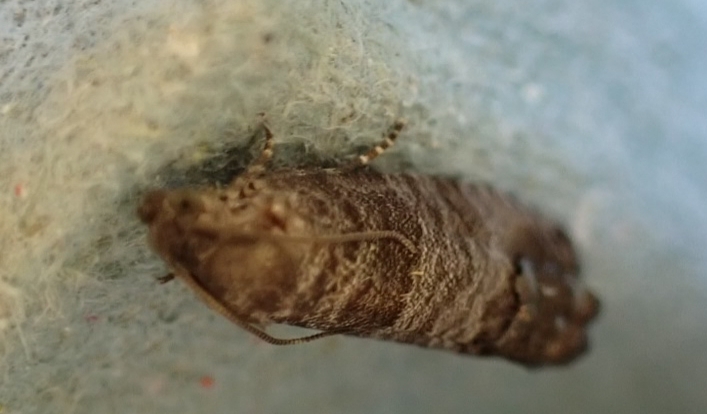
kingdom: Animalia
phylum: Arthropoda
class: Insecta
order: Lepidoptera
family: Tortricidae
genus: Cydia
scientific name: Cydia pomonella
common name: Codling moth
